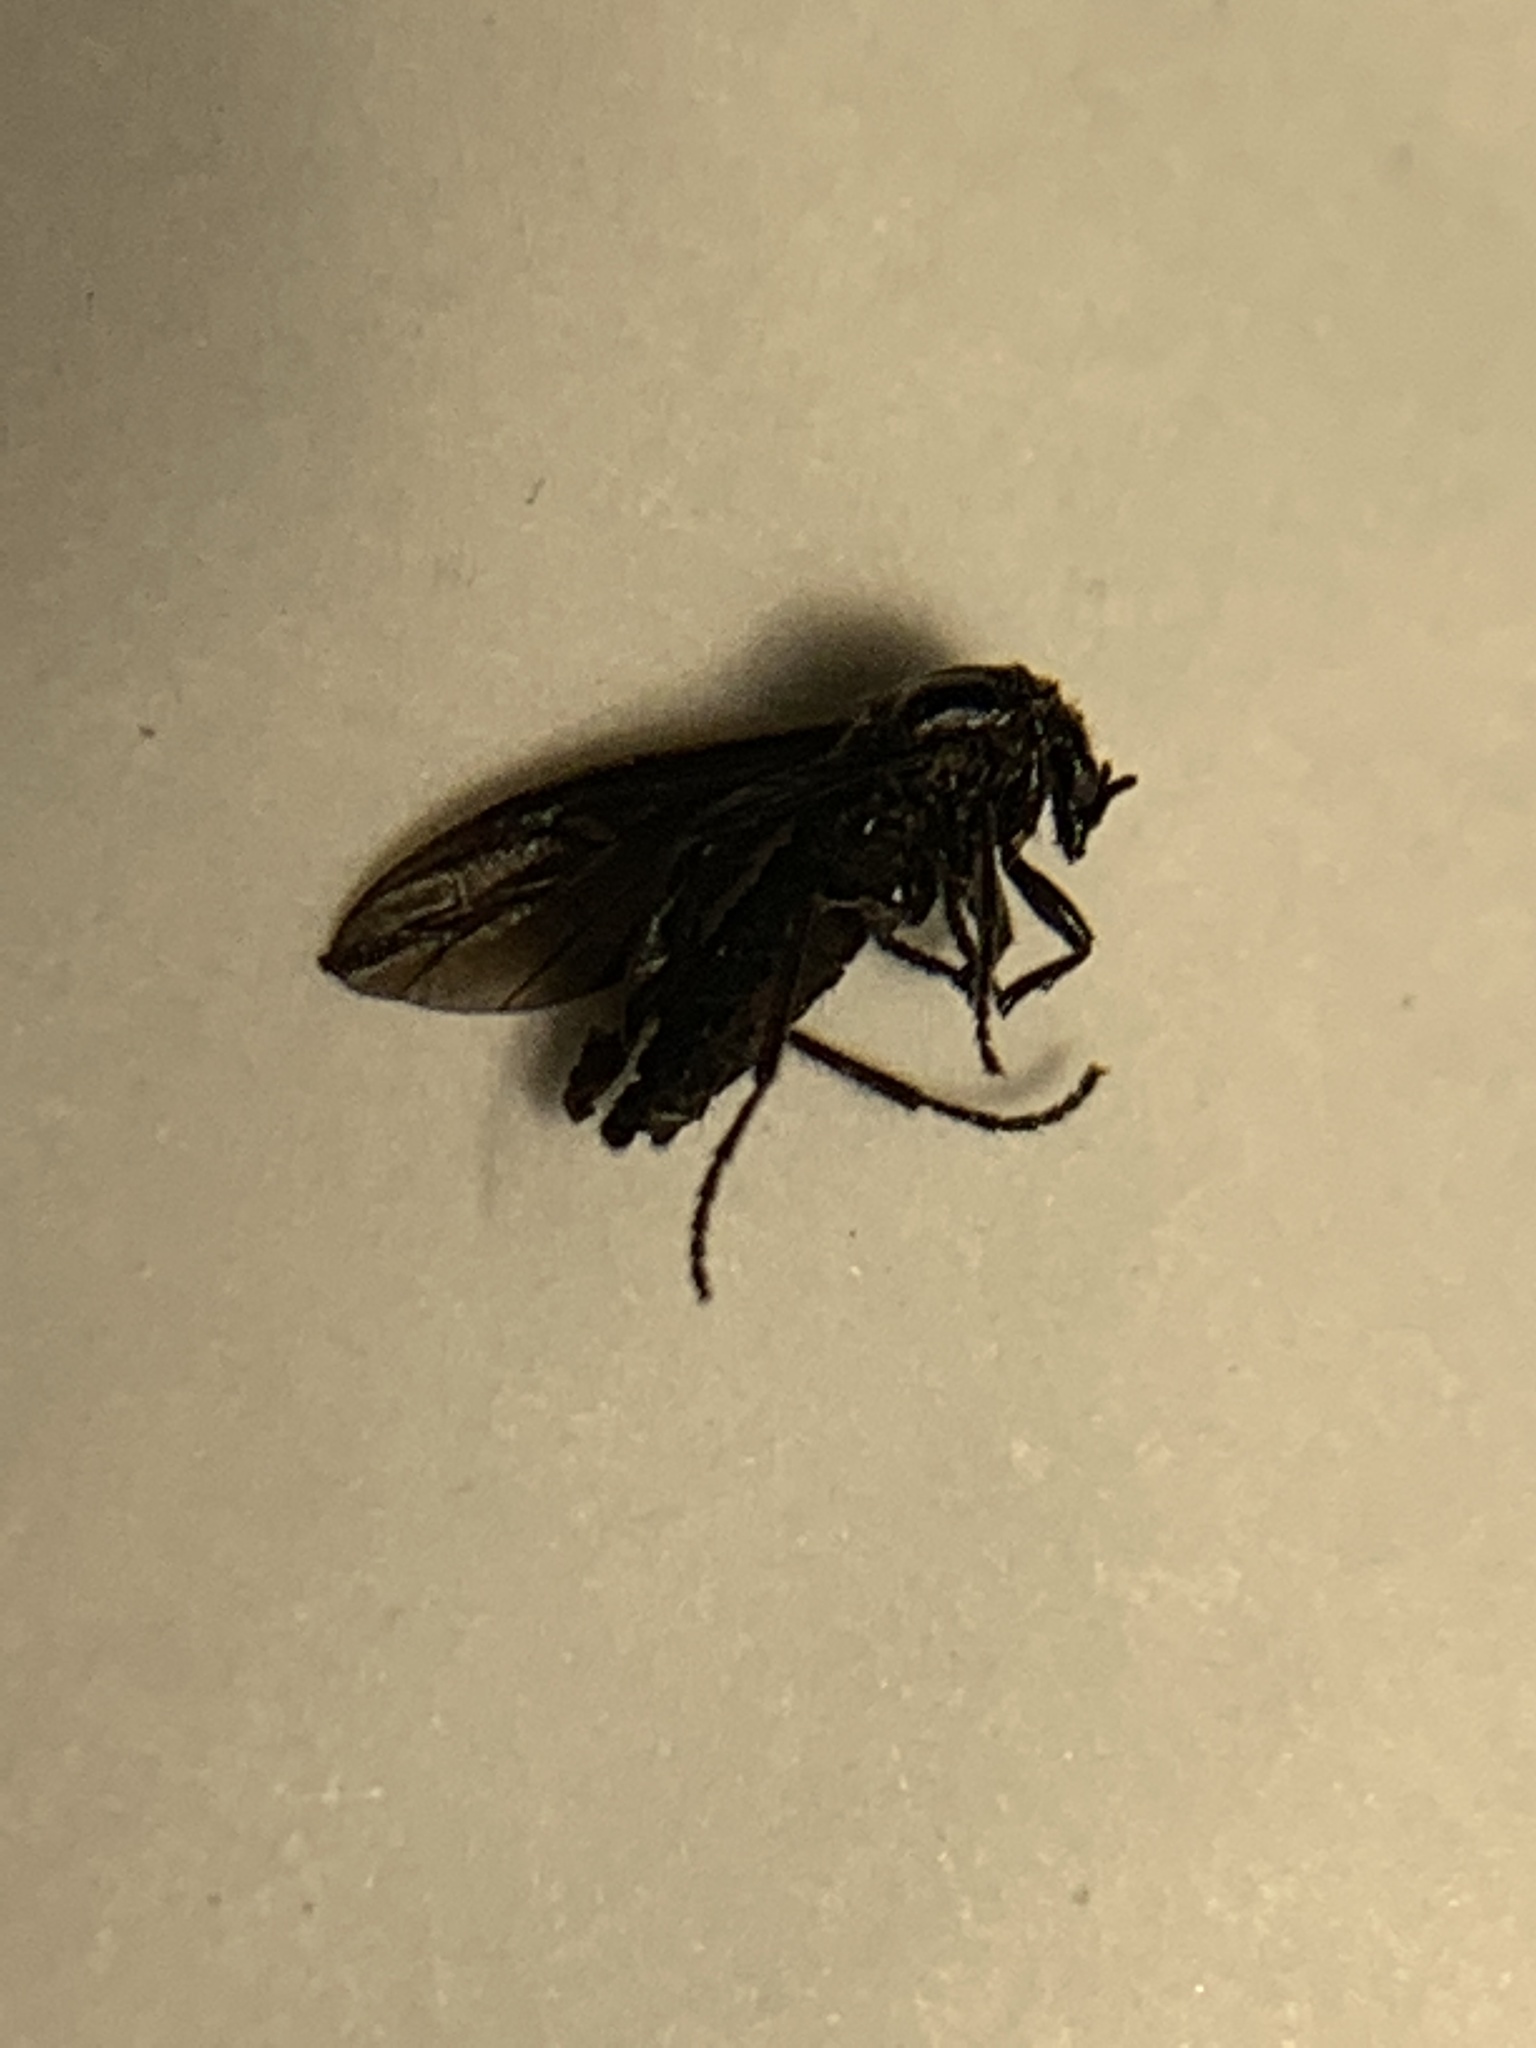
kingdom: Animalia
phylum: Arthropoda
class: Insecta
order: Diptera
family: Bibionidae
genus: Dilophus
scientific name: Dilophus orbatus
